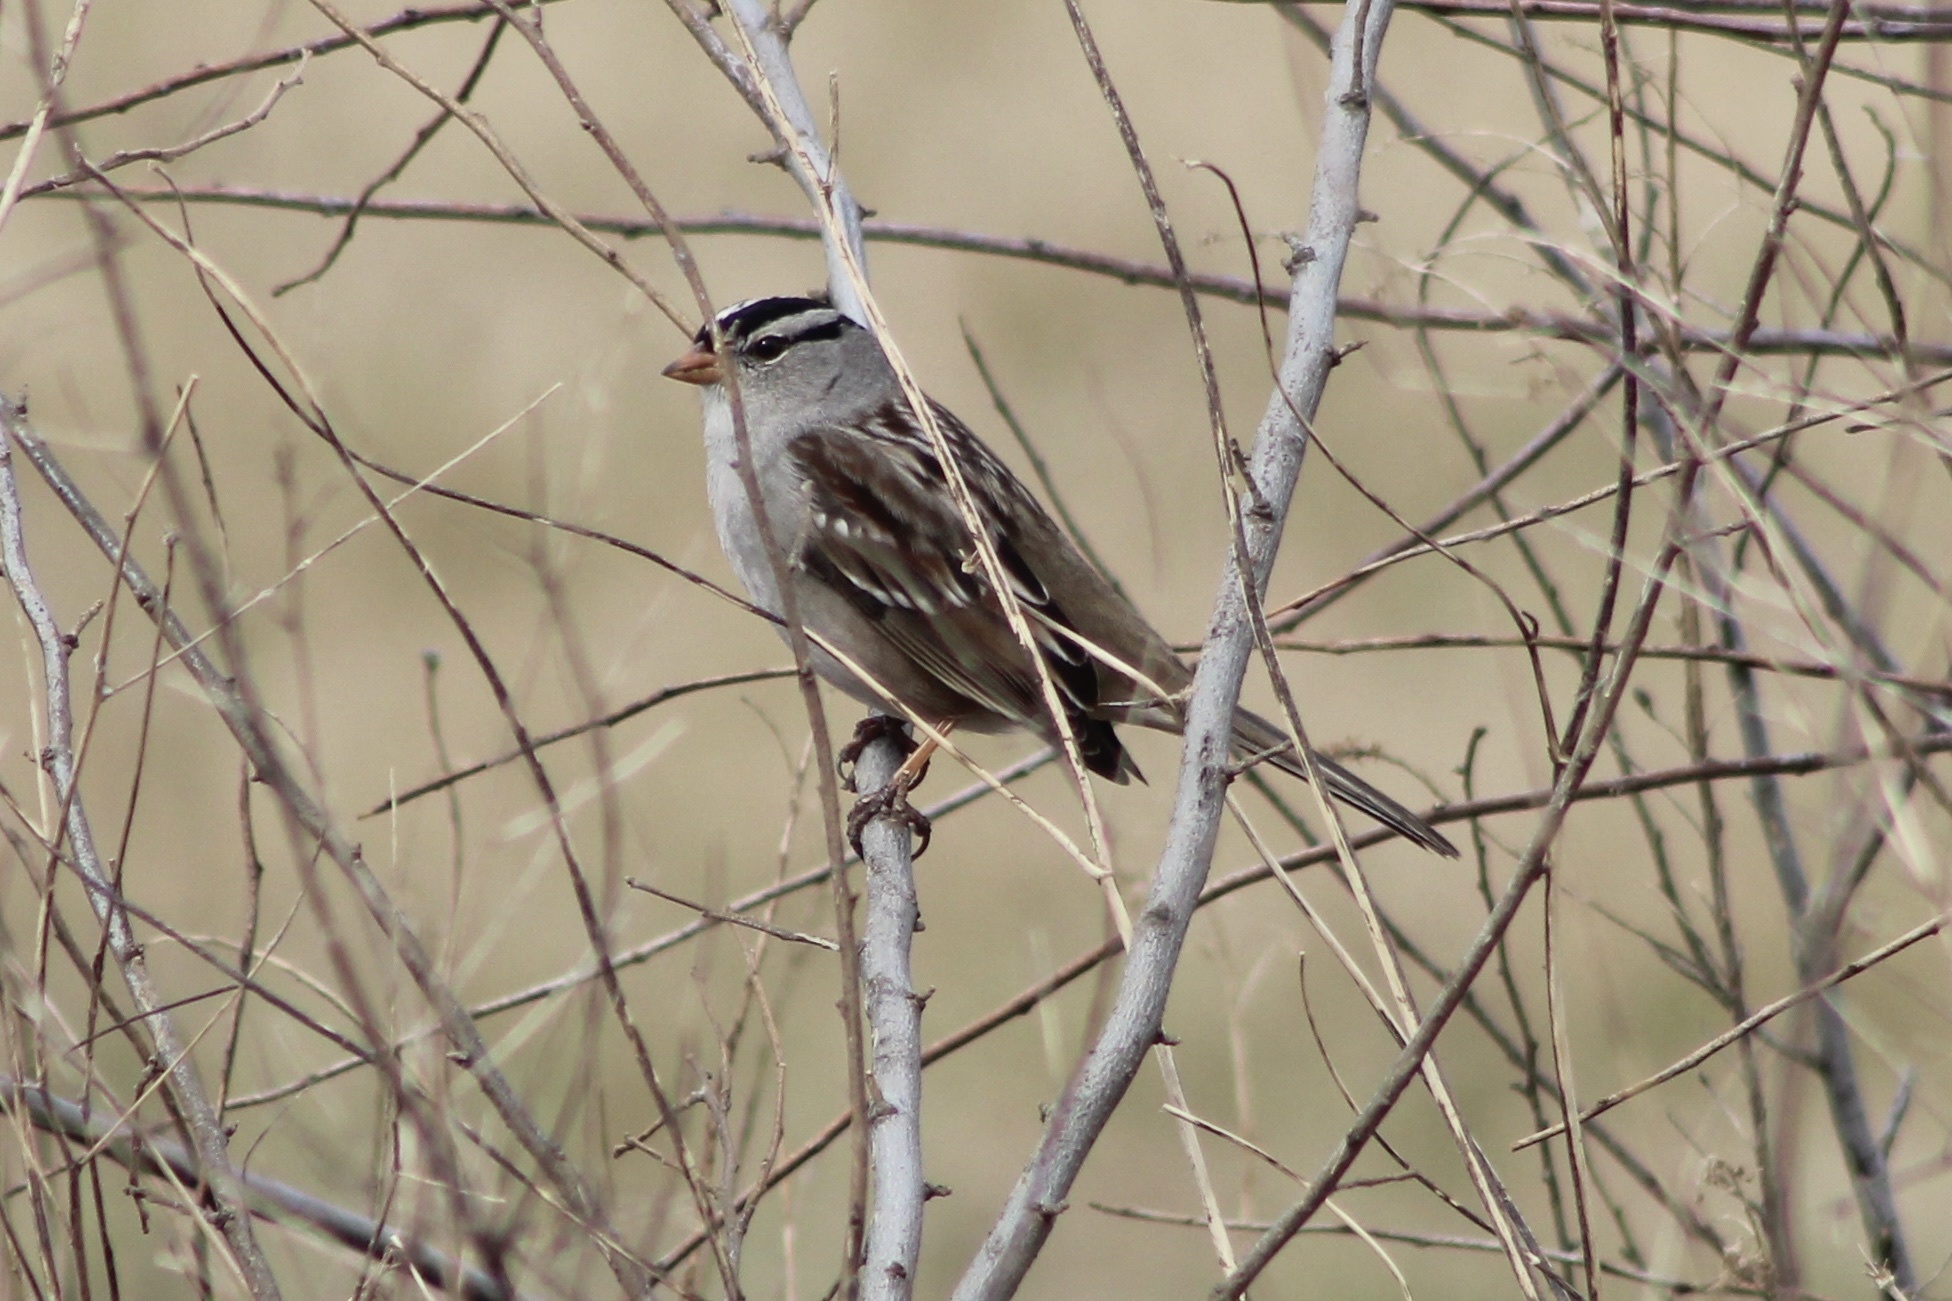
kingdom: Animalia
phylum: Chordata
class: Aves
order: Passeriformes
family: Passerellidae
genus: Zonotrichia
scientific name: Zonotrichia leucophrys
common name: White-crowned sparrow
